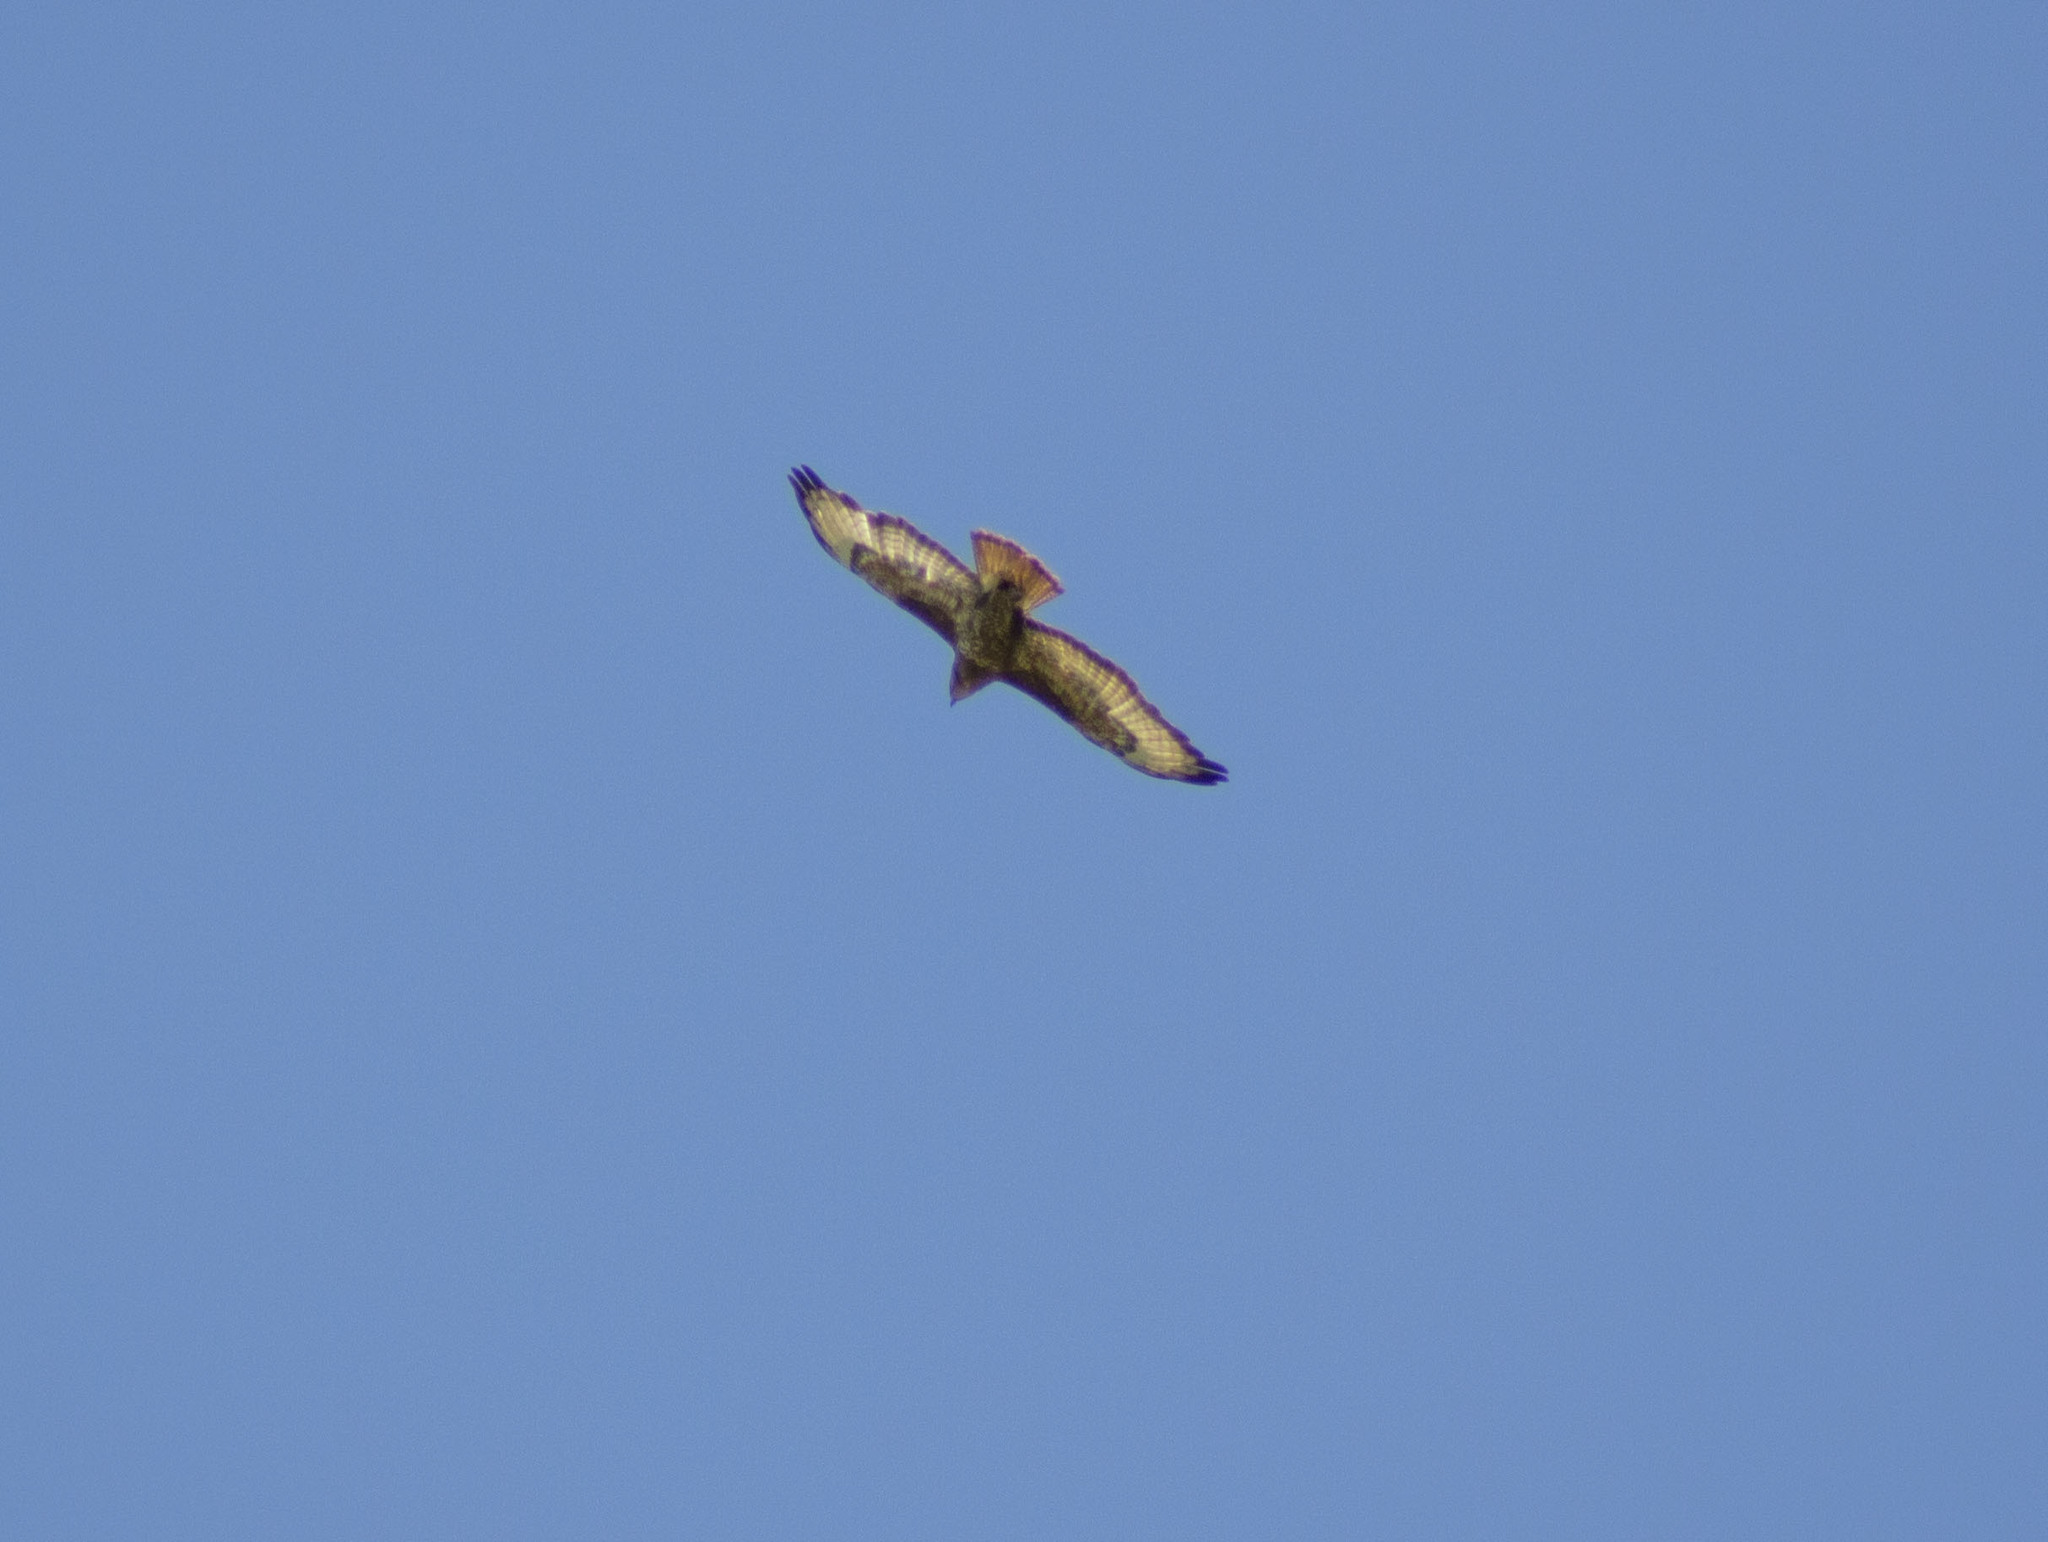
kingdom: Animalia
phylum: Chordata
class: Aves
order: Accipitriformes
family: Accipitridae
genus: Buteo
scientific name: Buteo buteo
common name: Common buzzard
